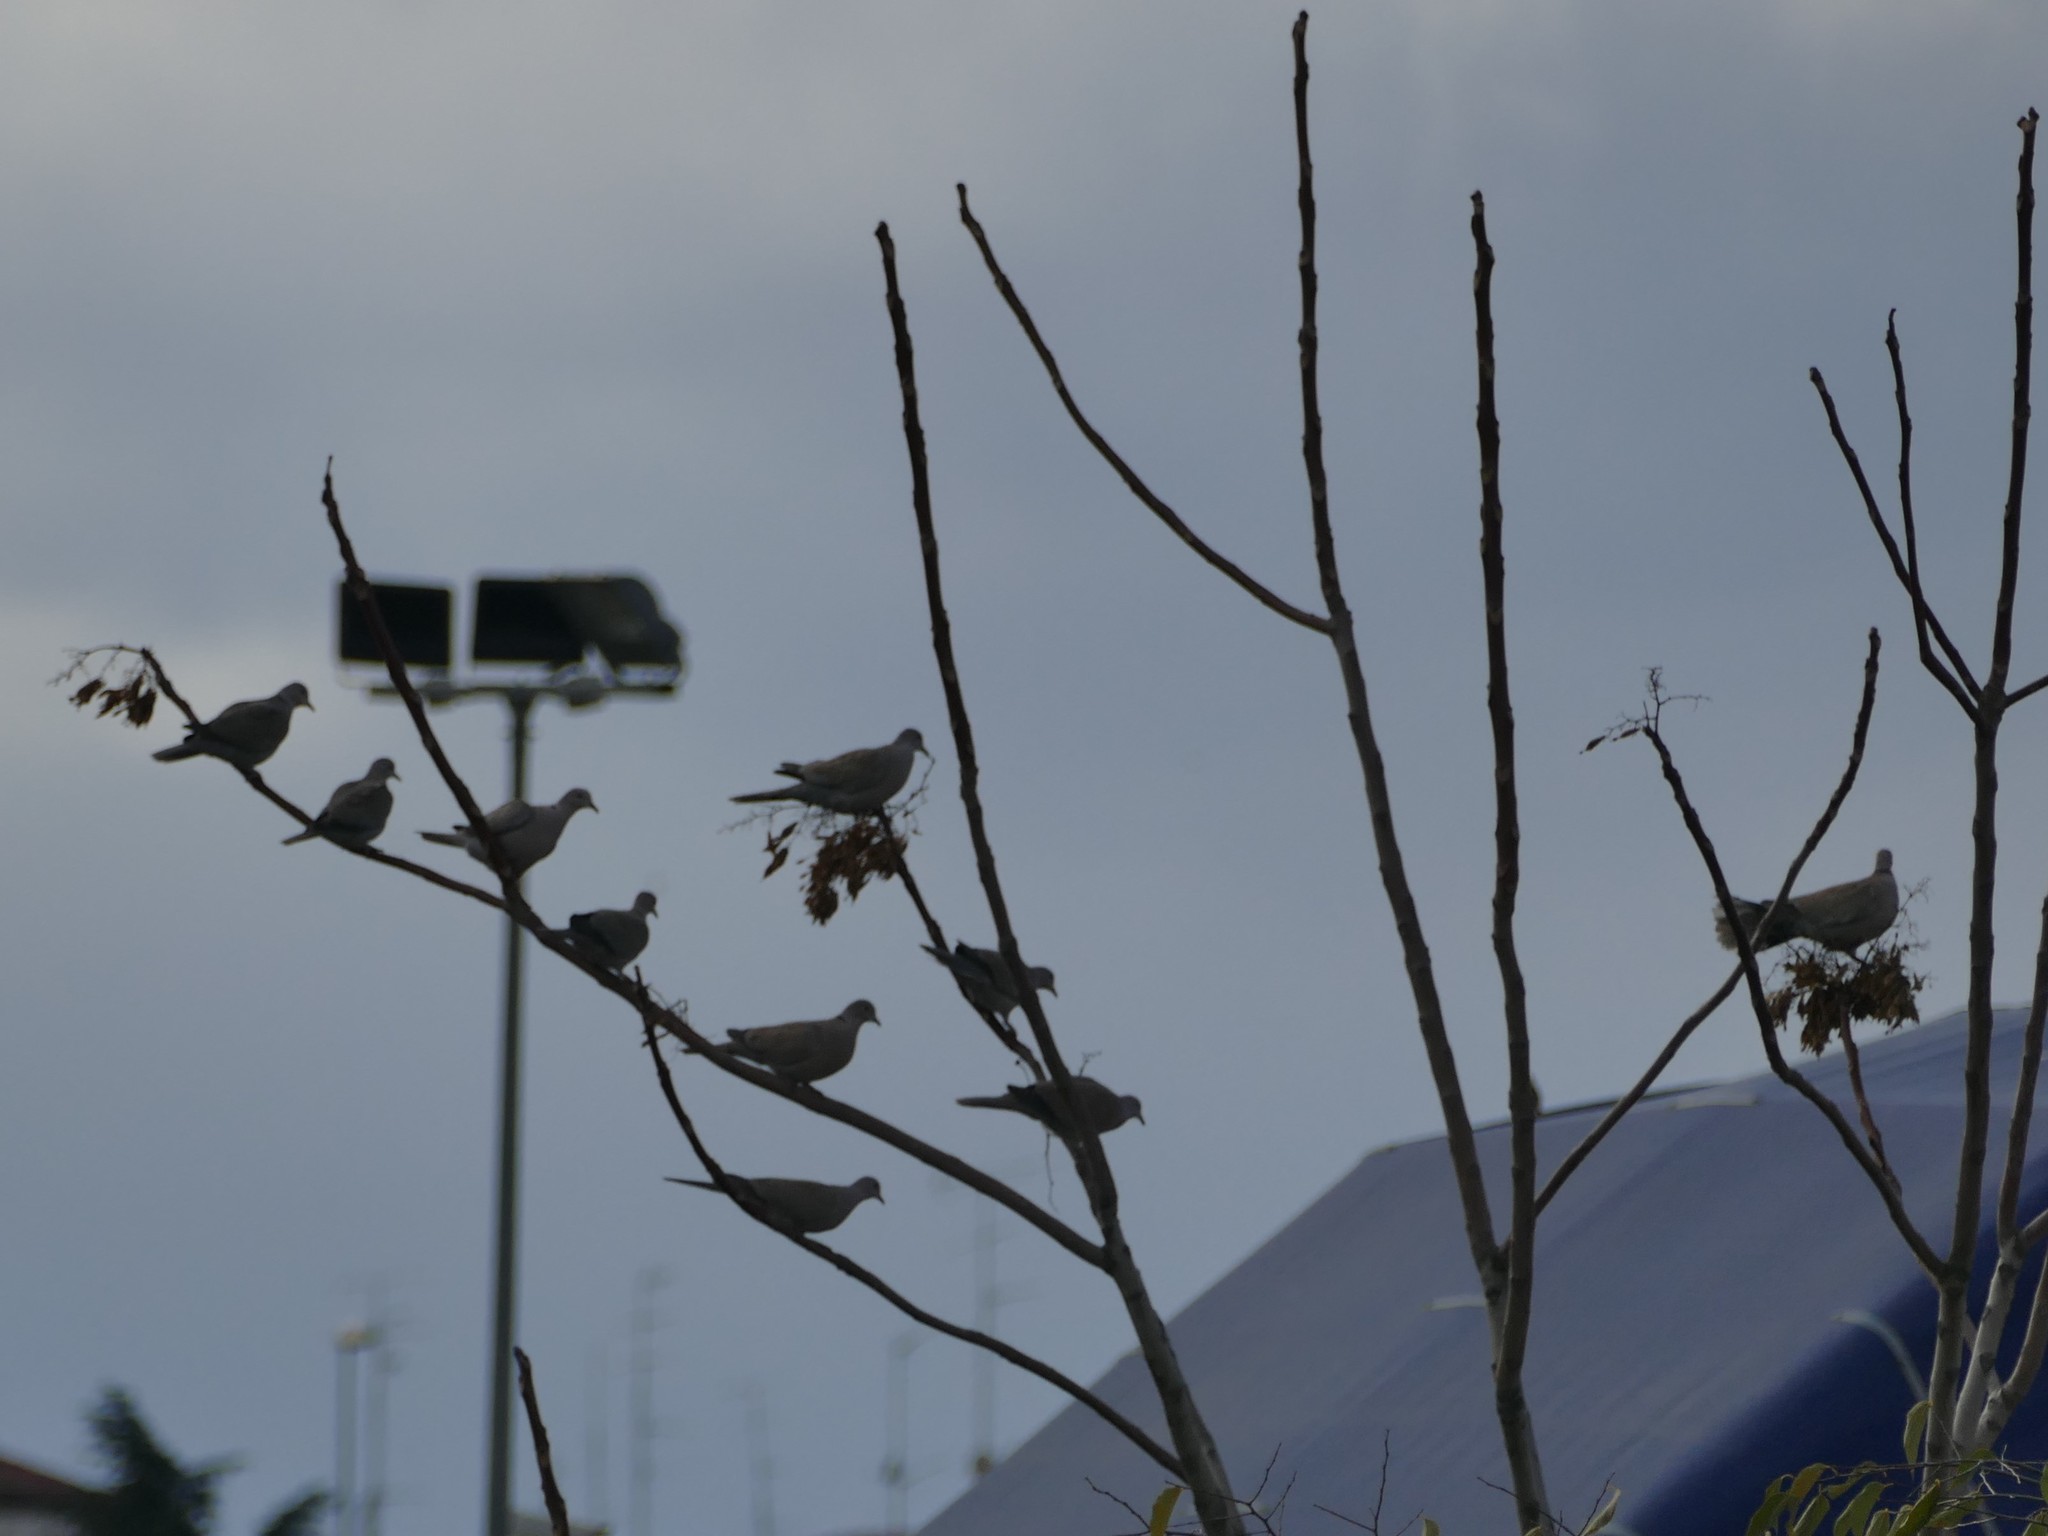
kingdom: Animalia
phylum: Chordata
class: Aves
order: Columbiformes
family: Columbidae
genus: Streptopelia
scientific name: Streptopelia decaocto
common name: Eurasian collared dove
